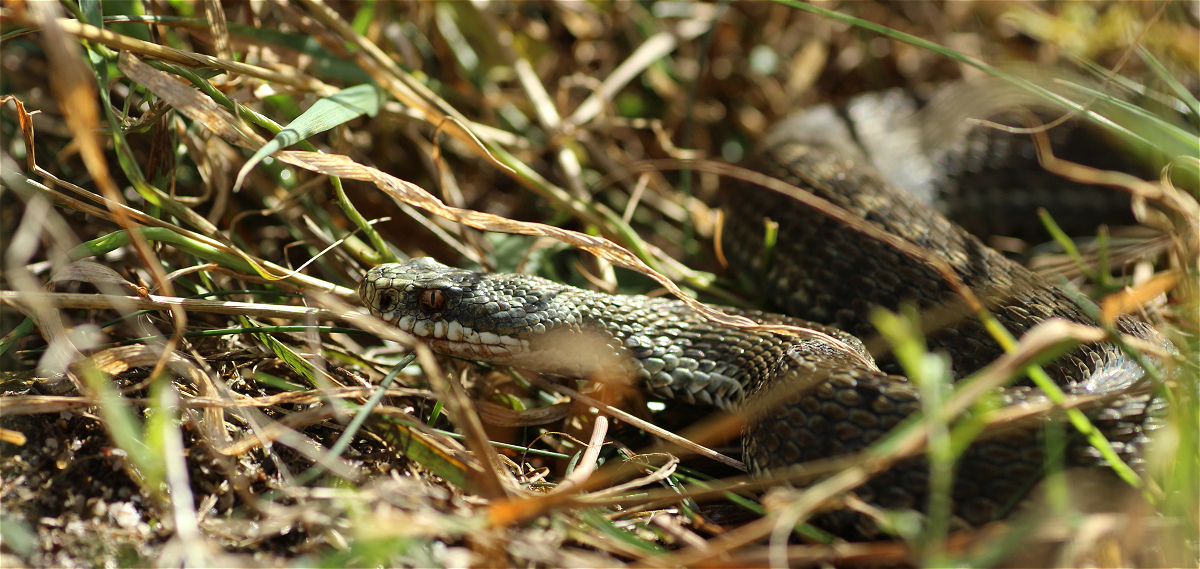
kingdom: Animalia
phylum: Chordata
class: Squamata
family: Viperidae
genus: Vipera
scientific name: Vipera berus
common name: Adder
